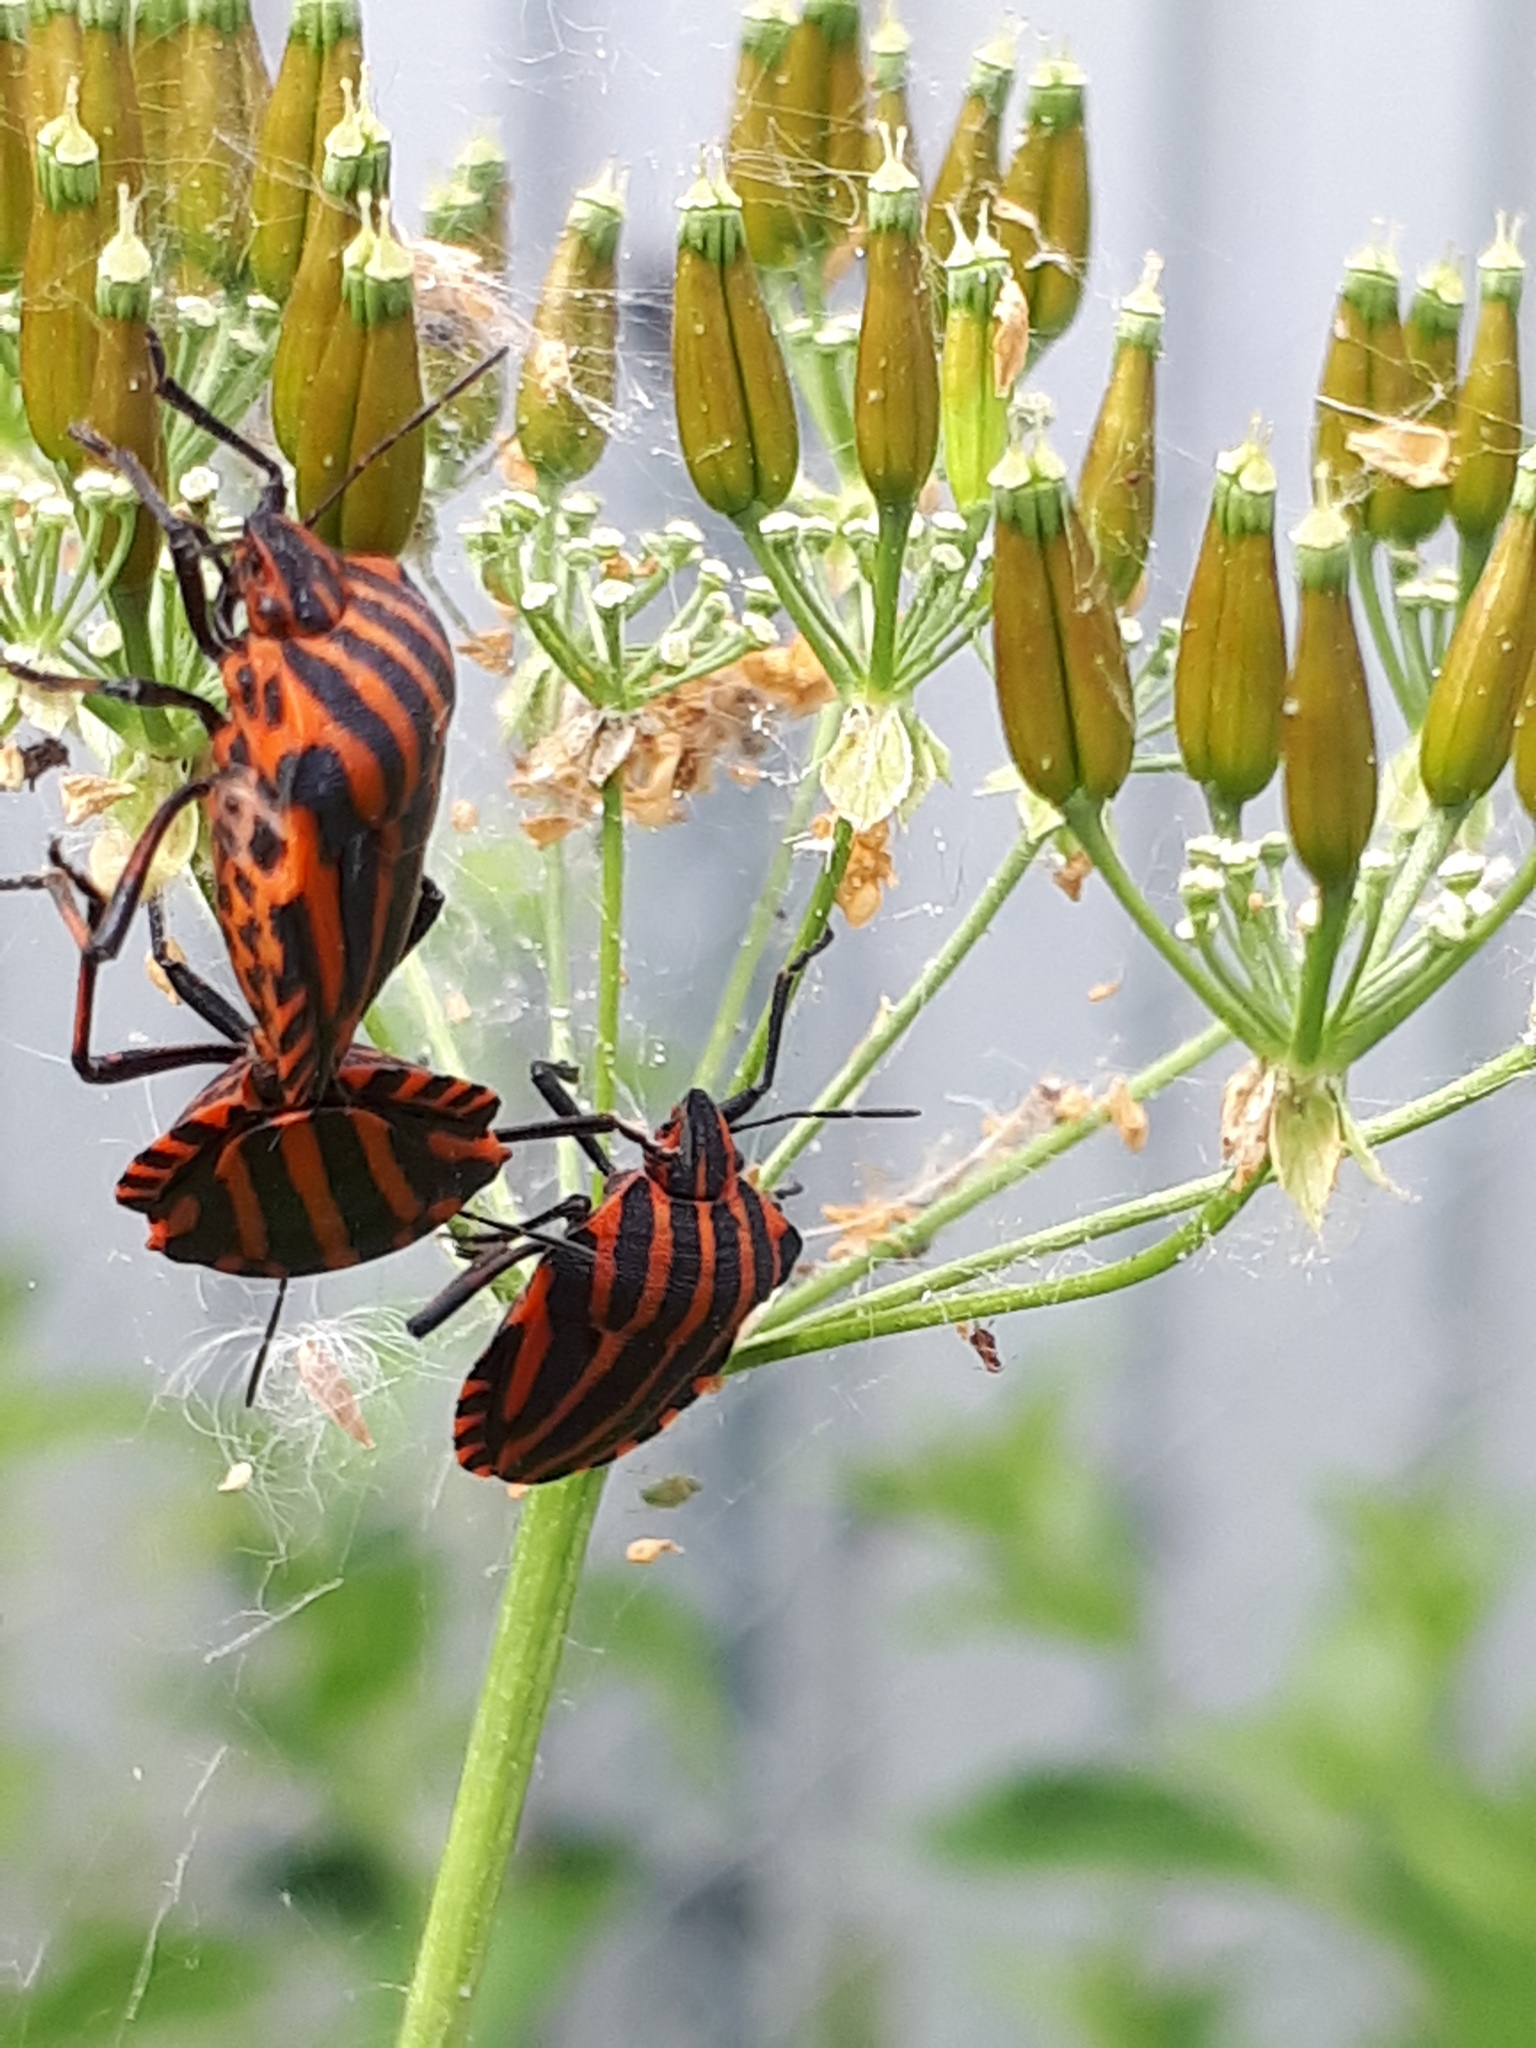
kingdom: Animalia
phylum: Arthropoda
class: Insecta
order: Hemiptera
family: Pentatomidae
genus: Graphosoma
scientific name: Graphosoma italicum
